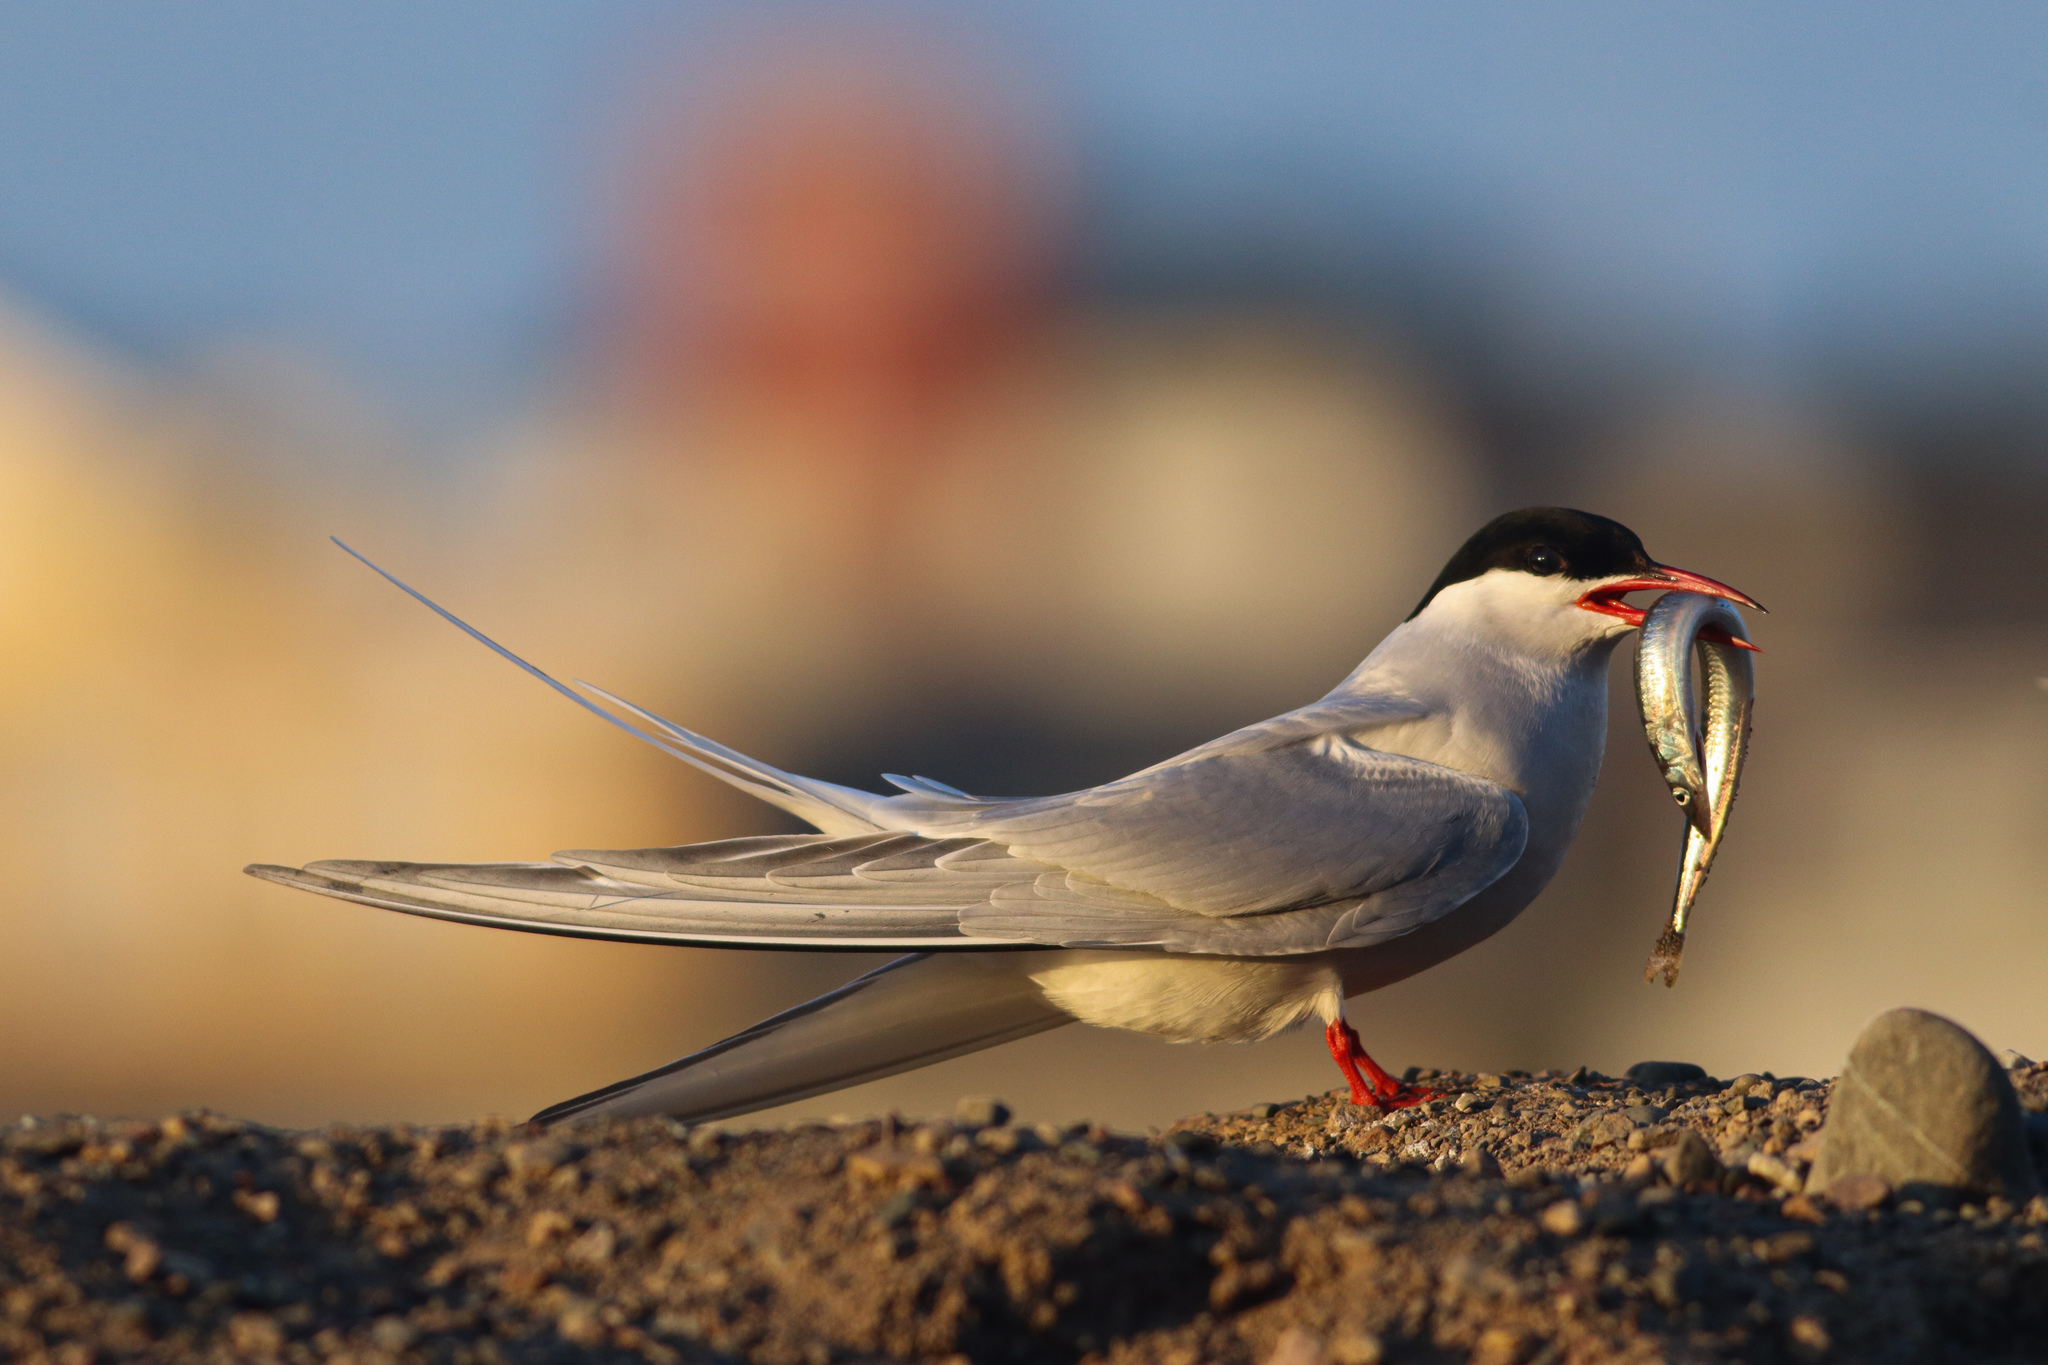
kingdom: Animalia
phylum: Chordata
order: Perciformes
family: Ammodytidae
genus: Ammodytes
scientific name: Ammodytes
